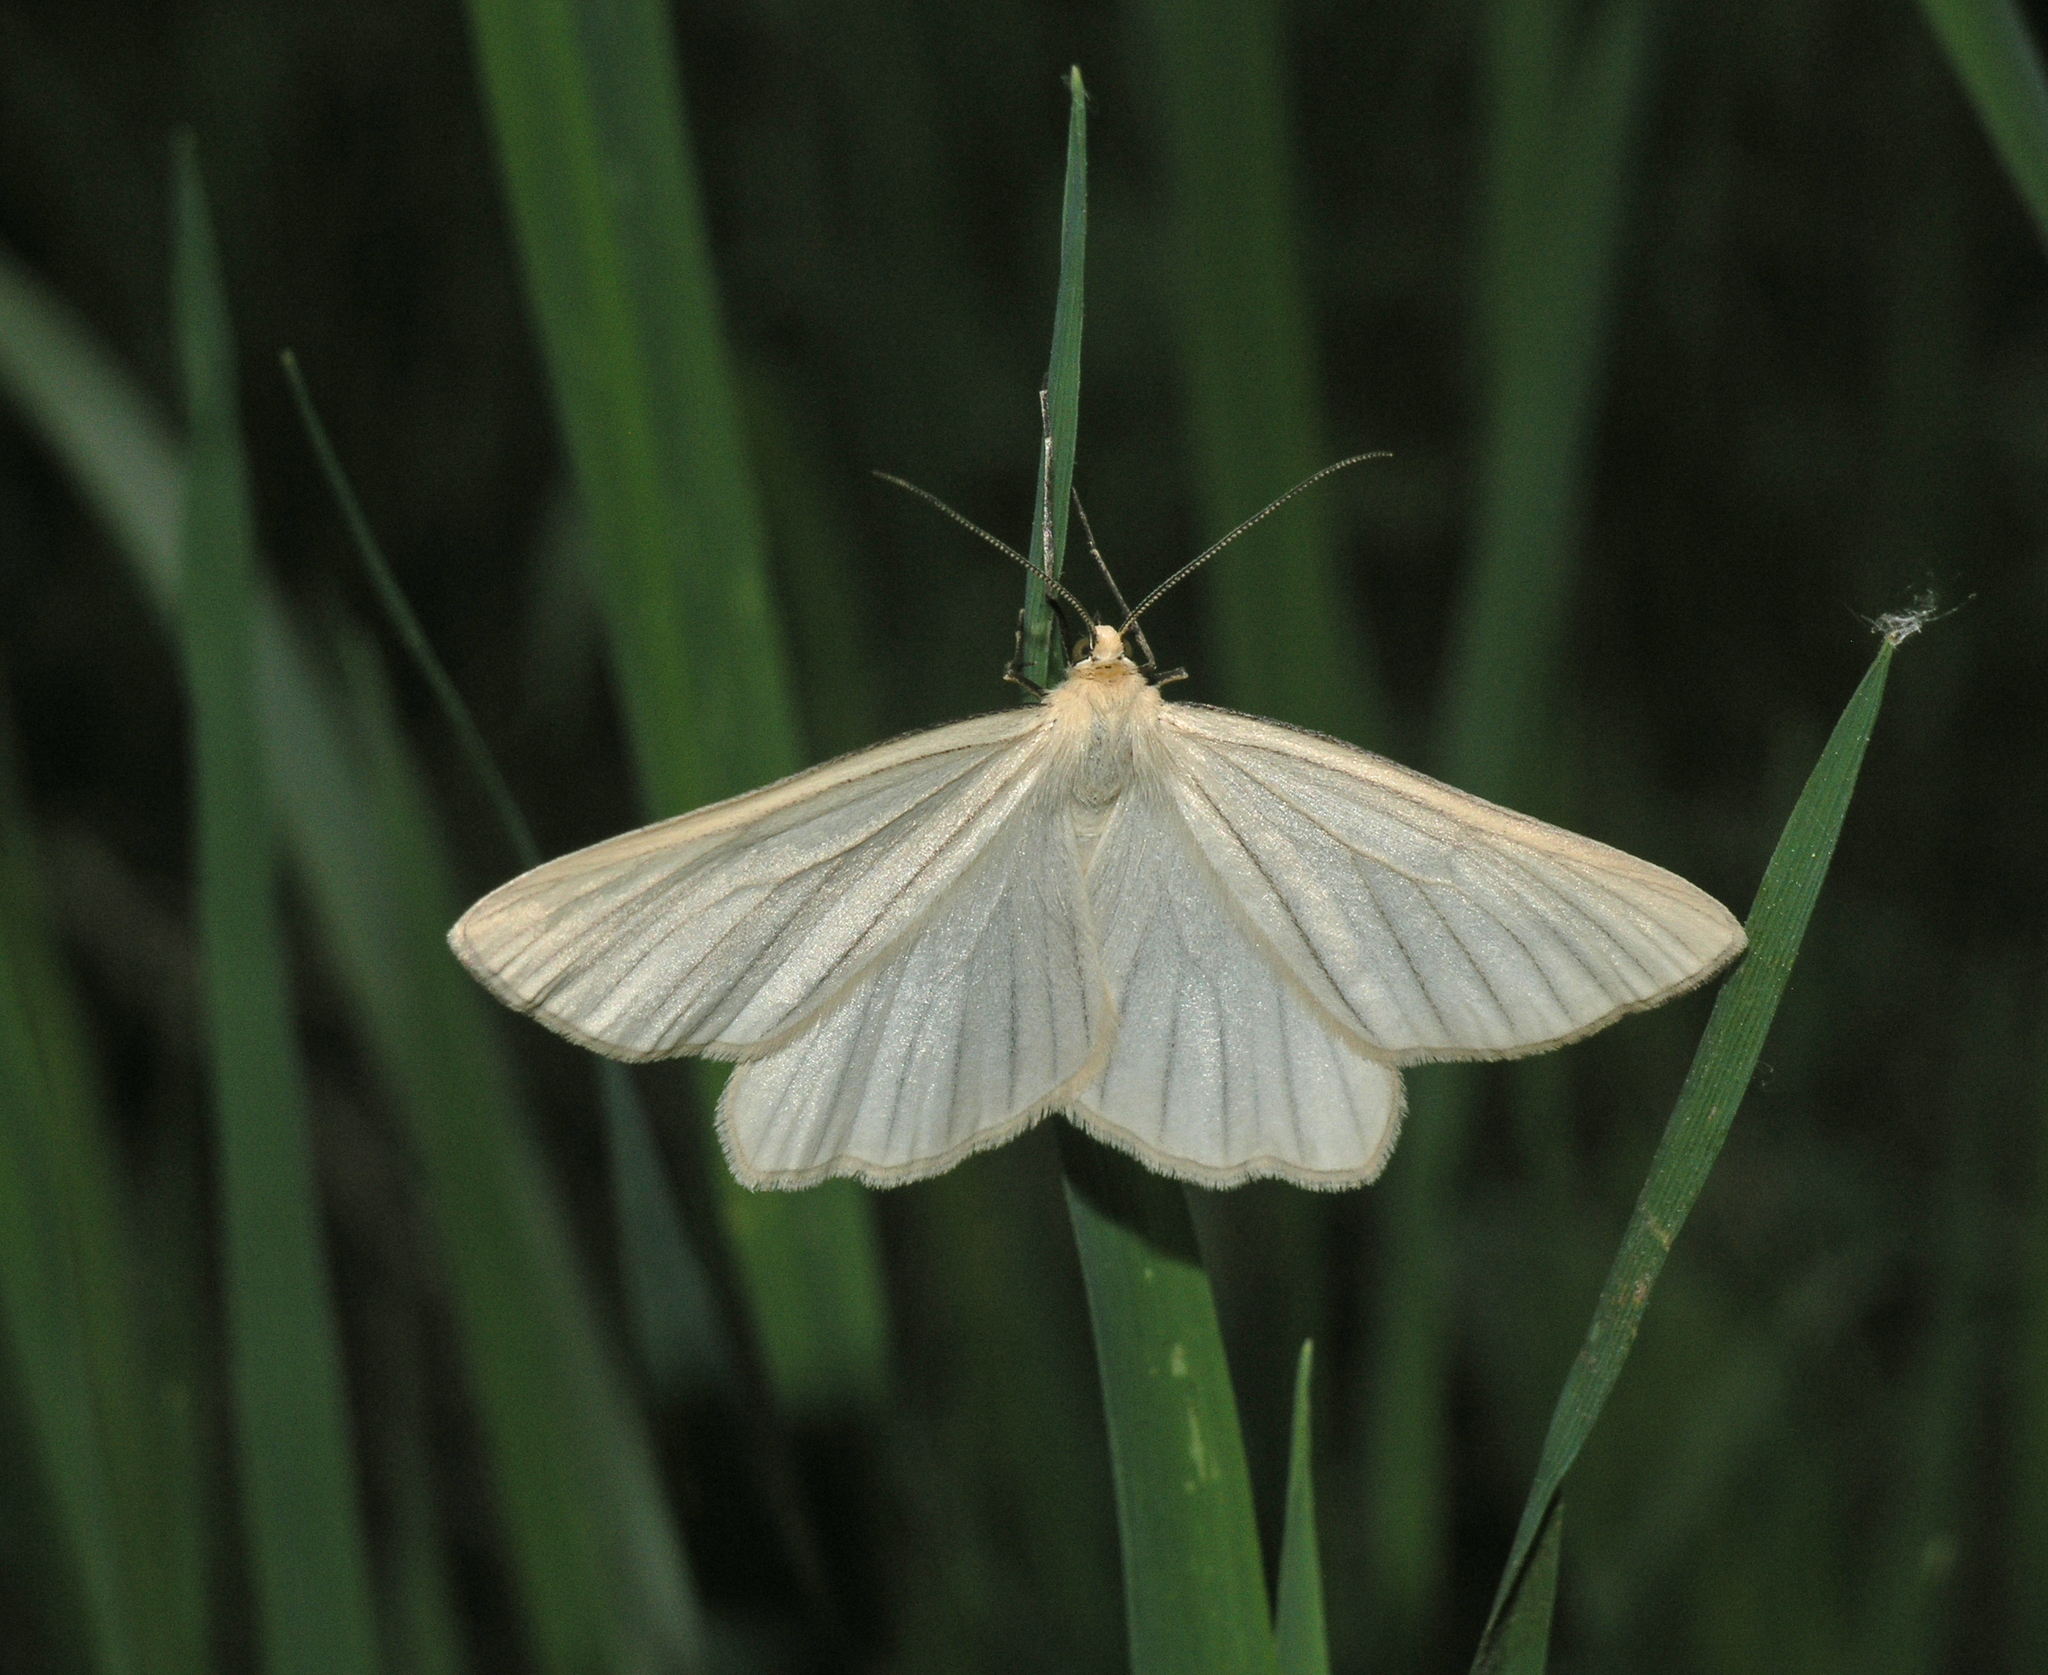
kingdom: Animalia
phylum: Arthropoda
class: Insecta
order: Lepidoptera
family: Geometridae
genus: Siona
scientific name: Siona lineata
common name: Black-veined moth
